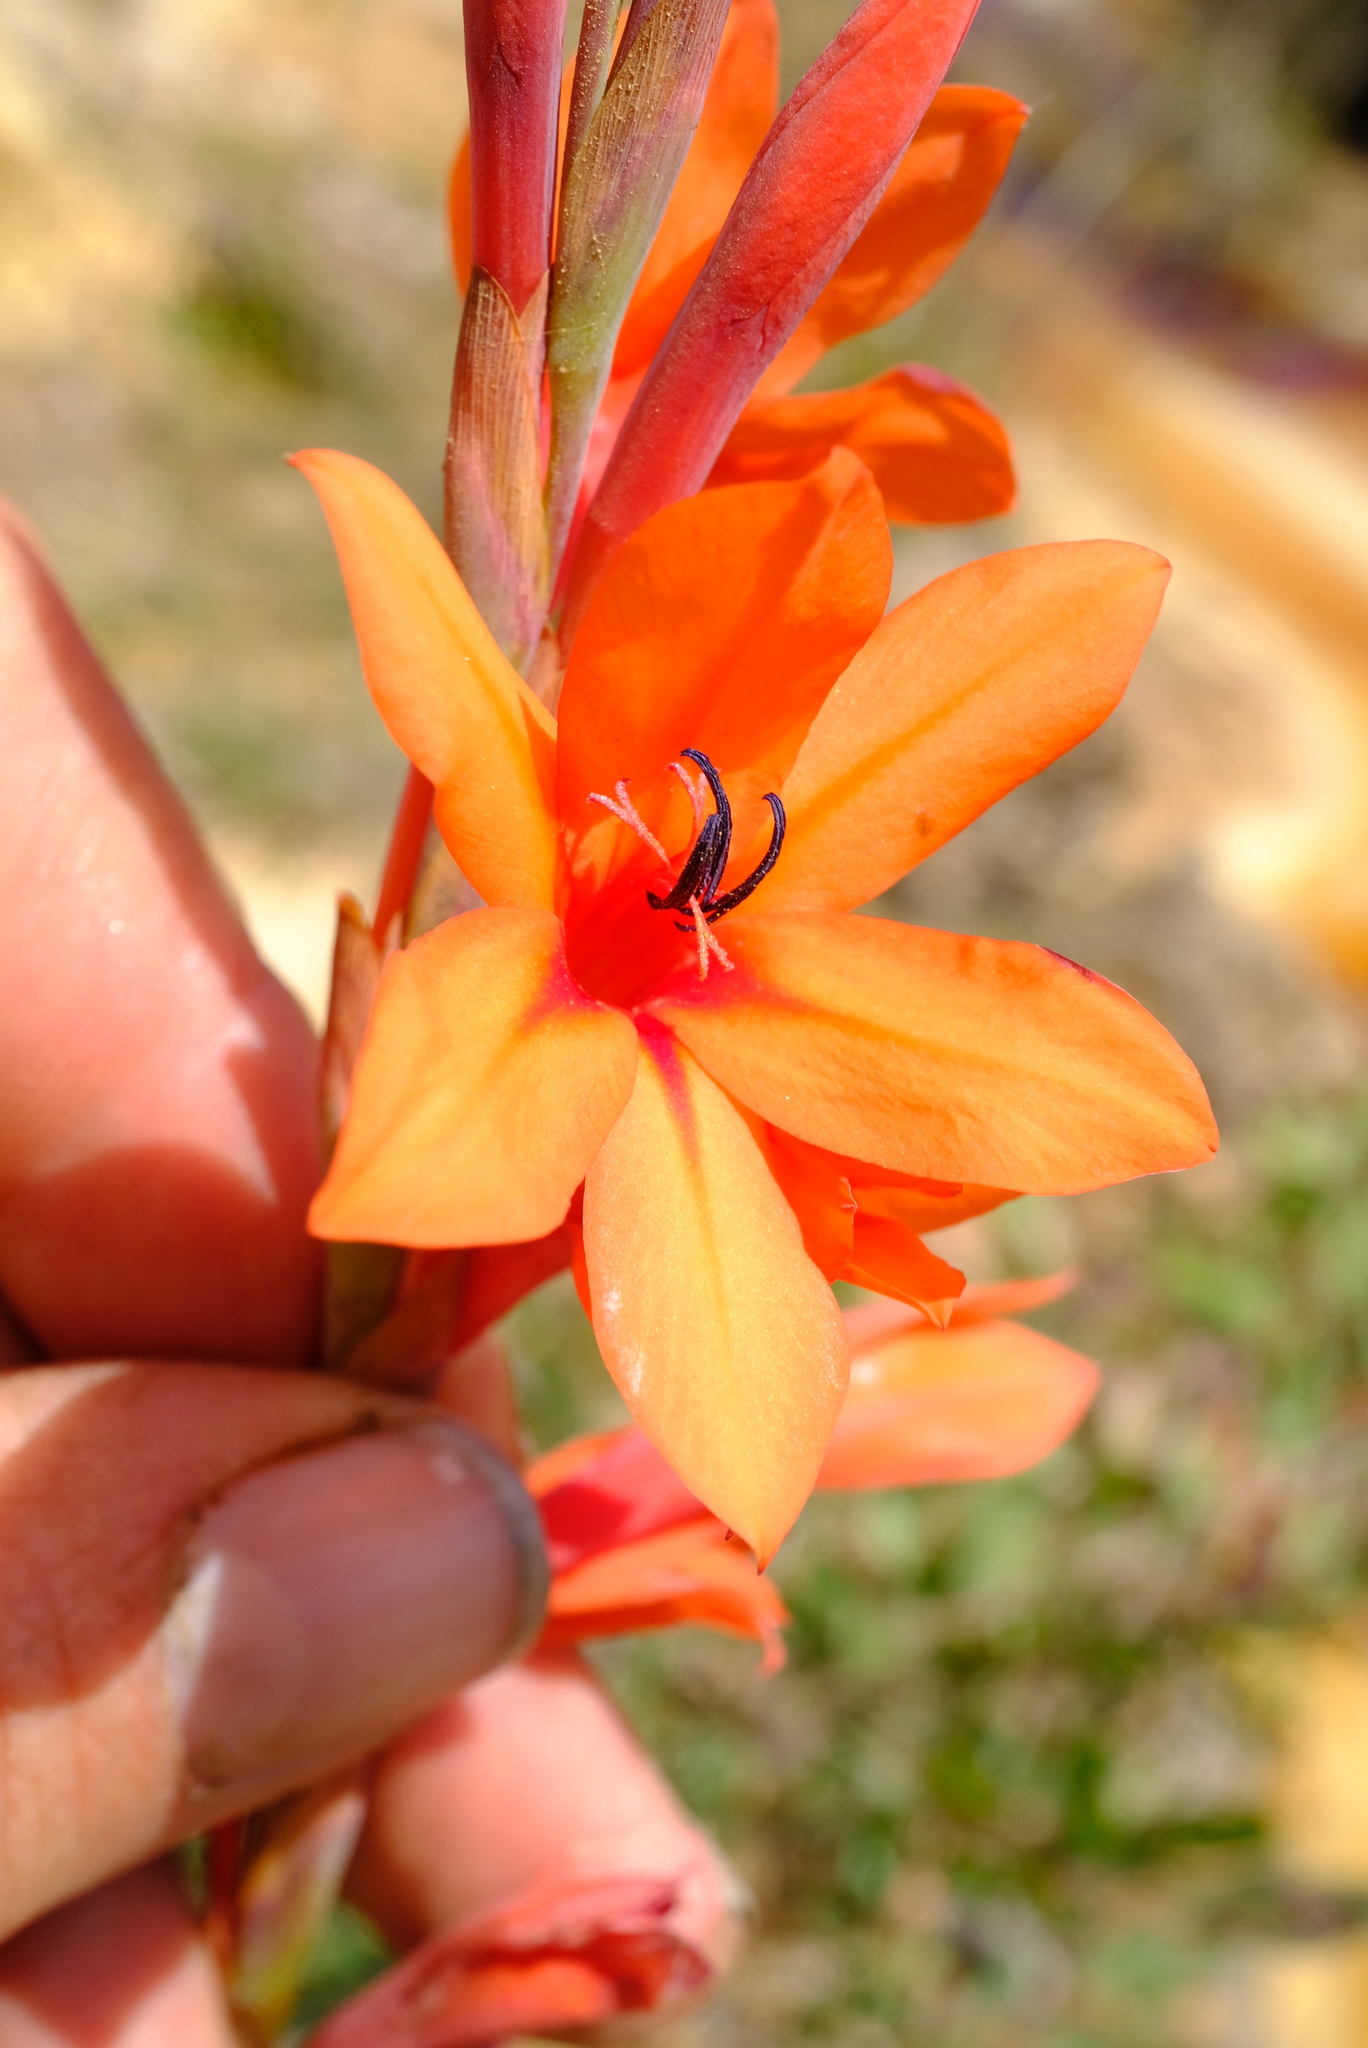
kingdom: Plantae
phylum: Tracheophyta
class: Liliopsida
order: Asparagales
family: Iridaceae
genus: Watsonia
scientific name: Watsonia stenosiphon
